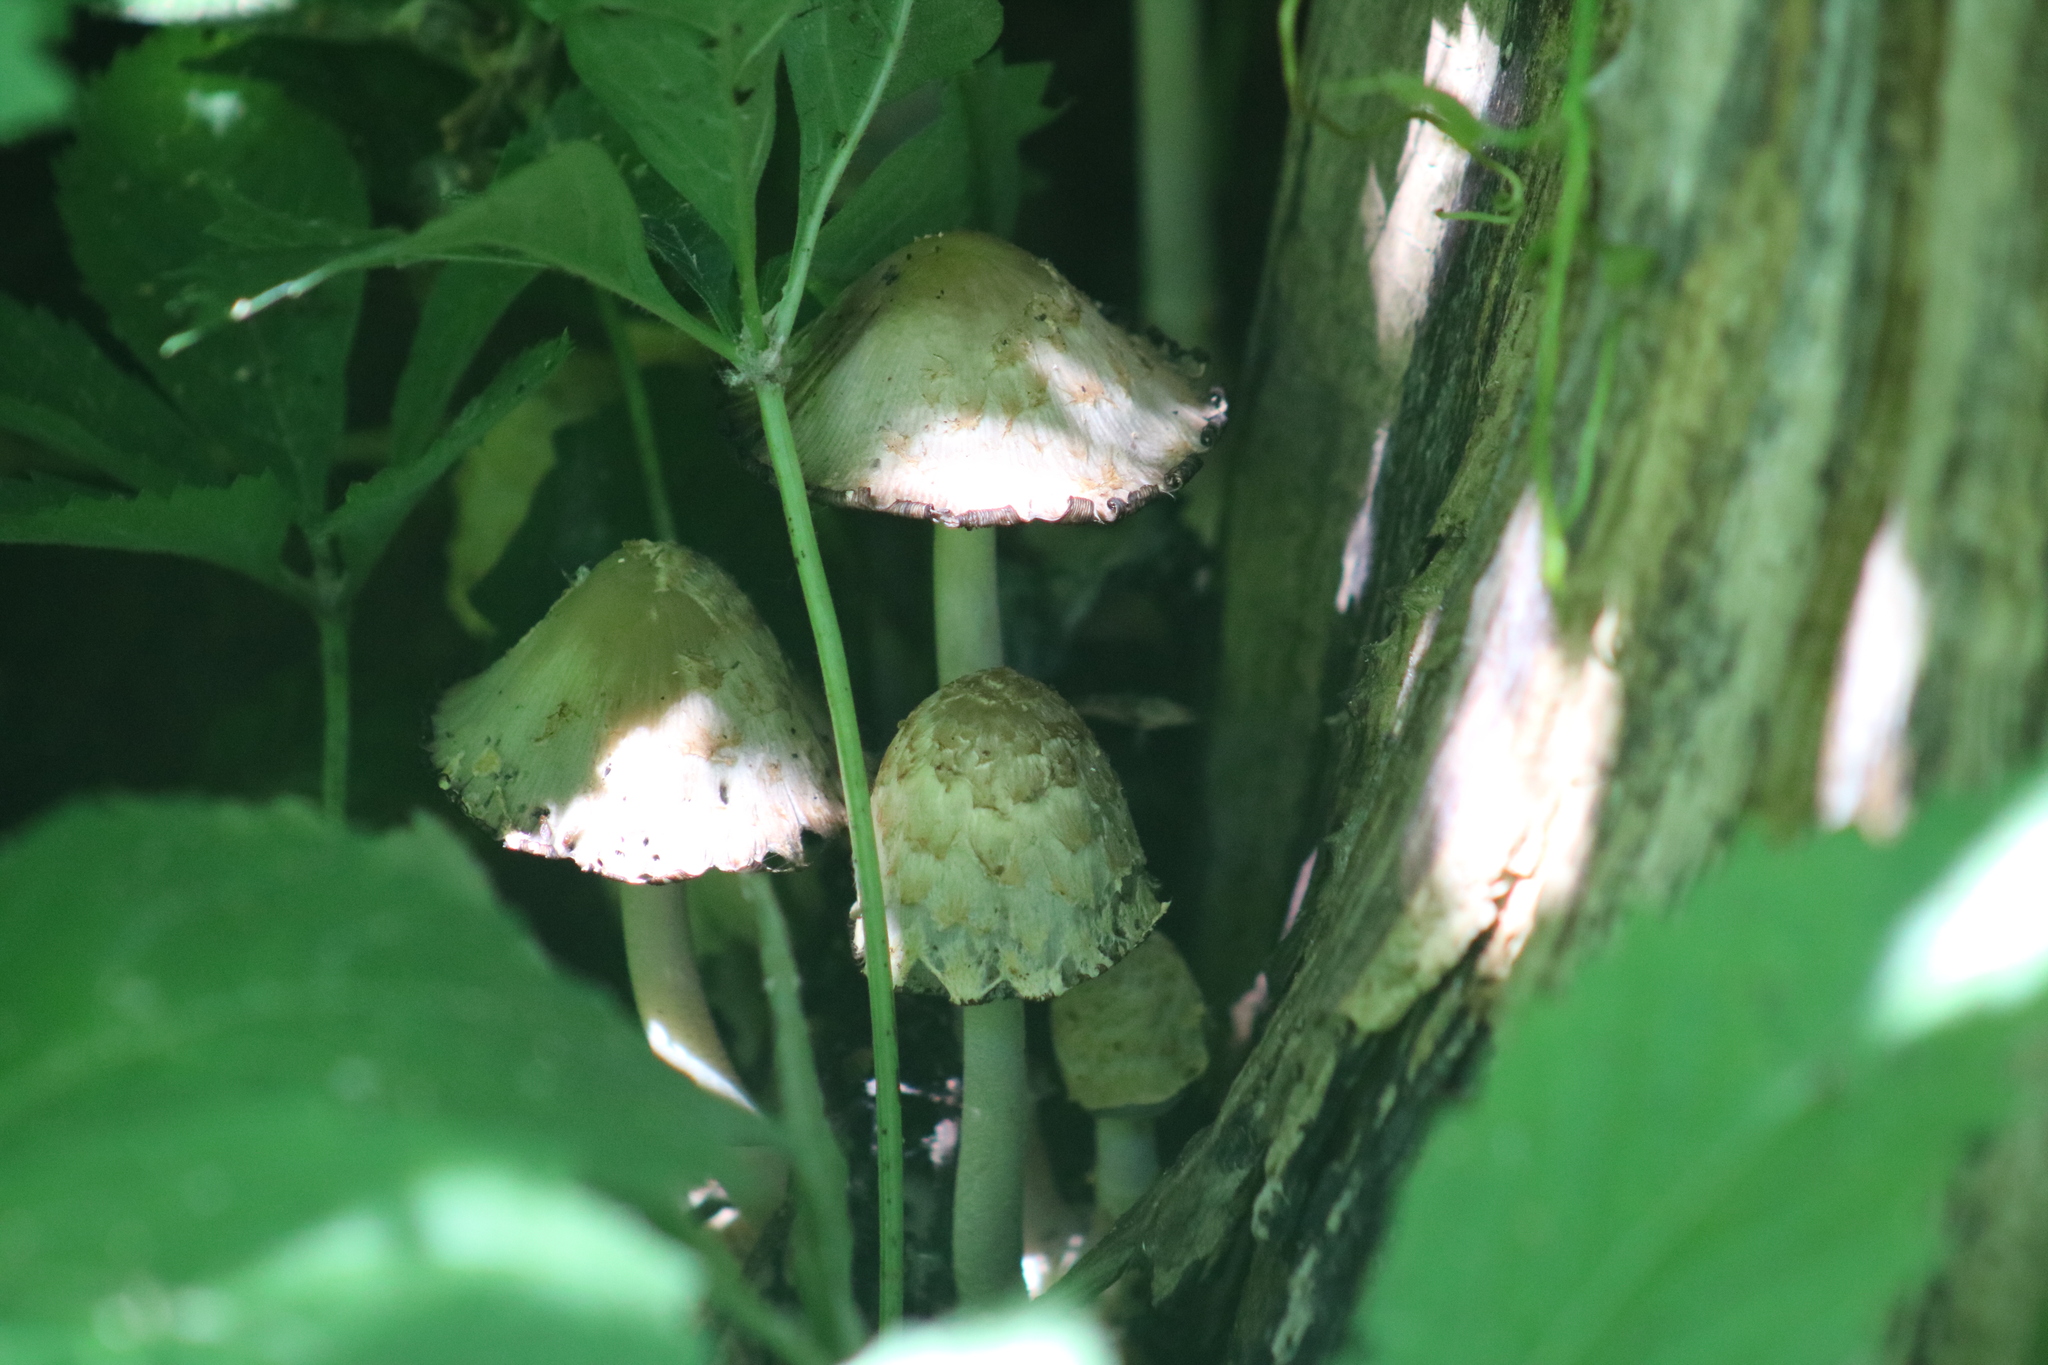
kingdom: Fungi
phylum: Basidiomycota
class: Agaricomycetes
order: Agaricales
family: Psathyrellaceae
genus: Coprinopsis
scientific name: Coprinopsis variegata
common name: Scaly ink cap
